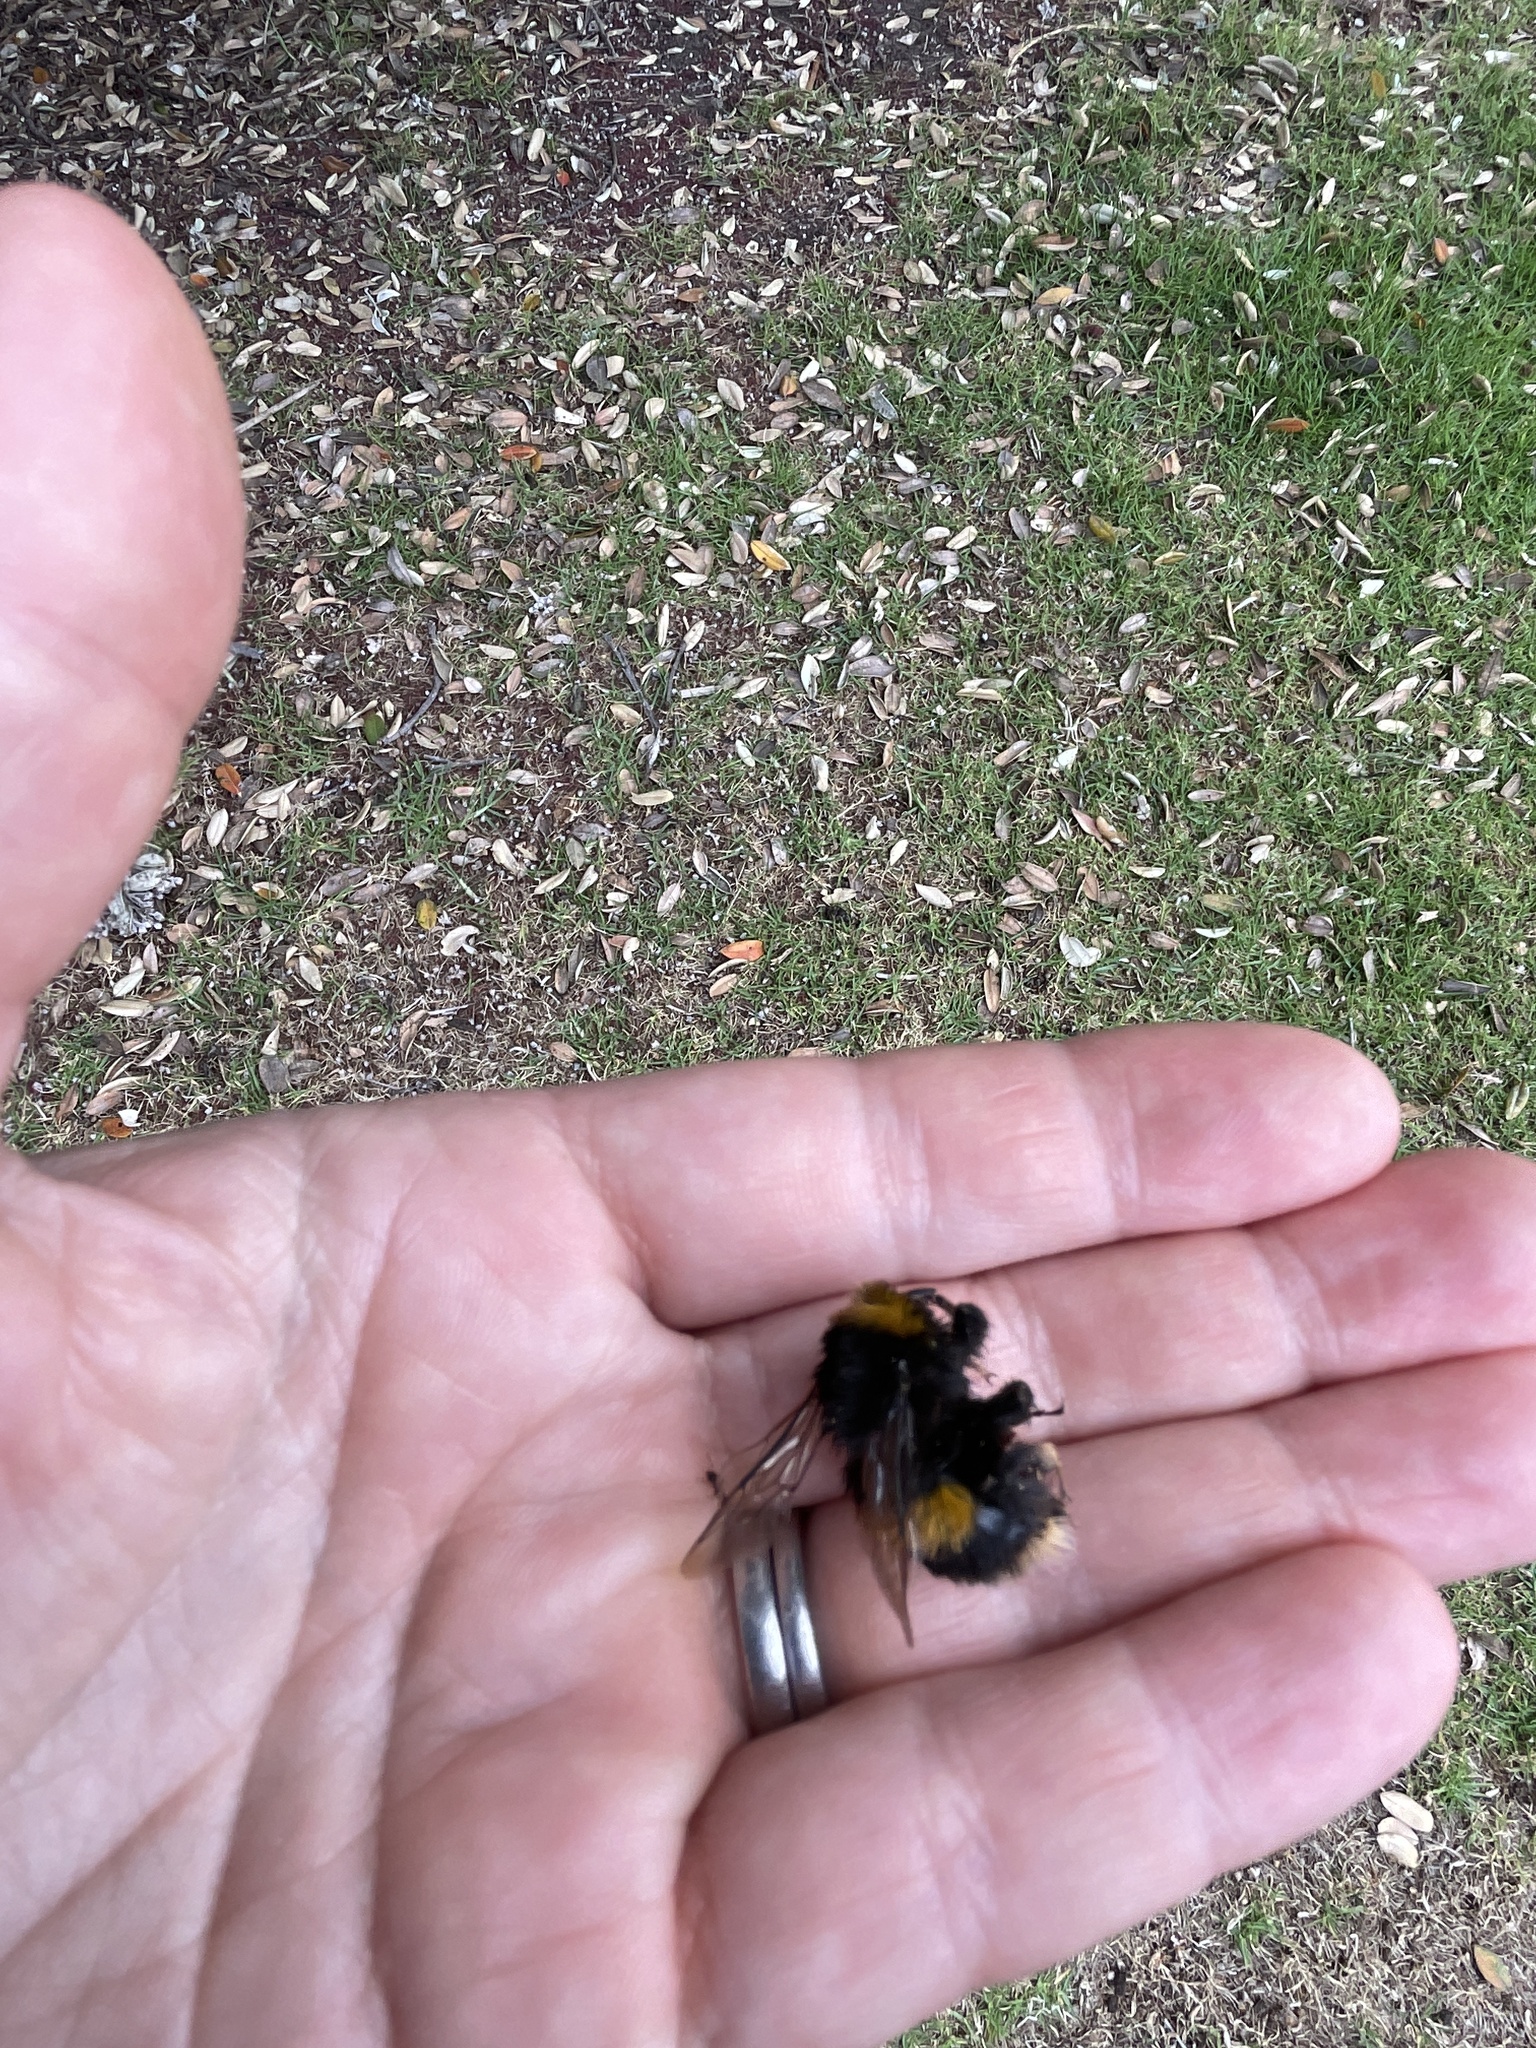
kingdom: Animalia
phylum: Arthropoda
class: Insecta
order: Hymenoptera
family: Apidae
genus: Bombus
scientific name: Bombus terrestris
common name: Buff-tailed bumblebee
